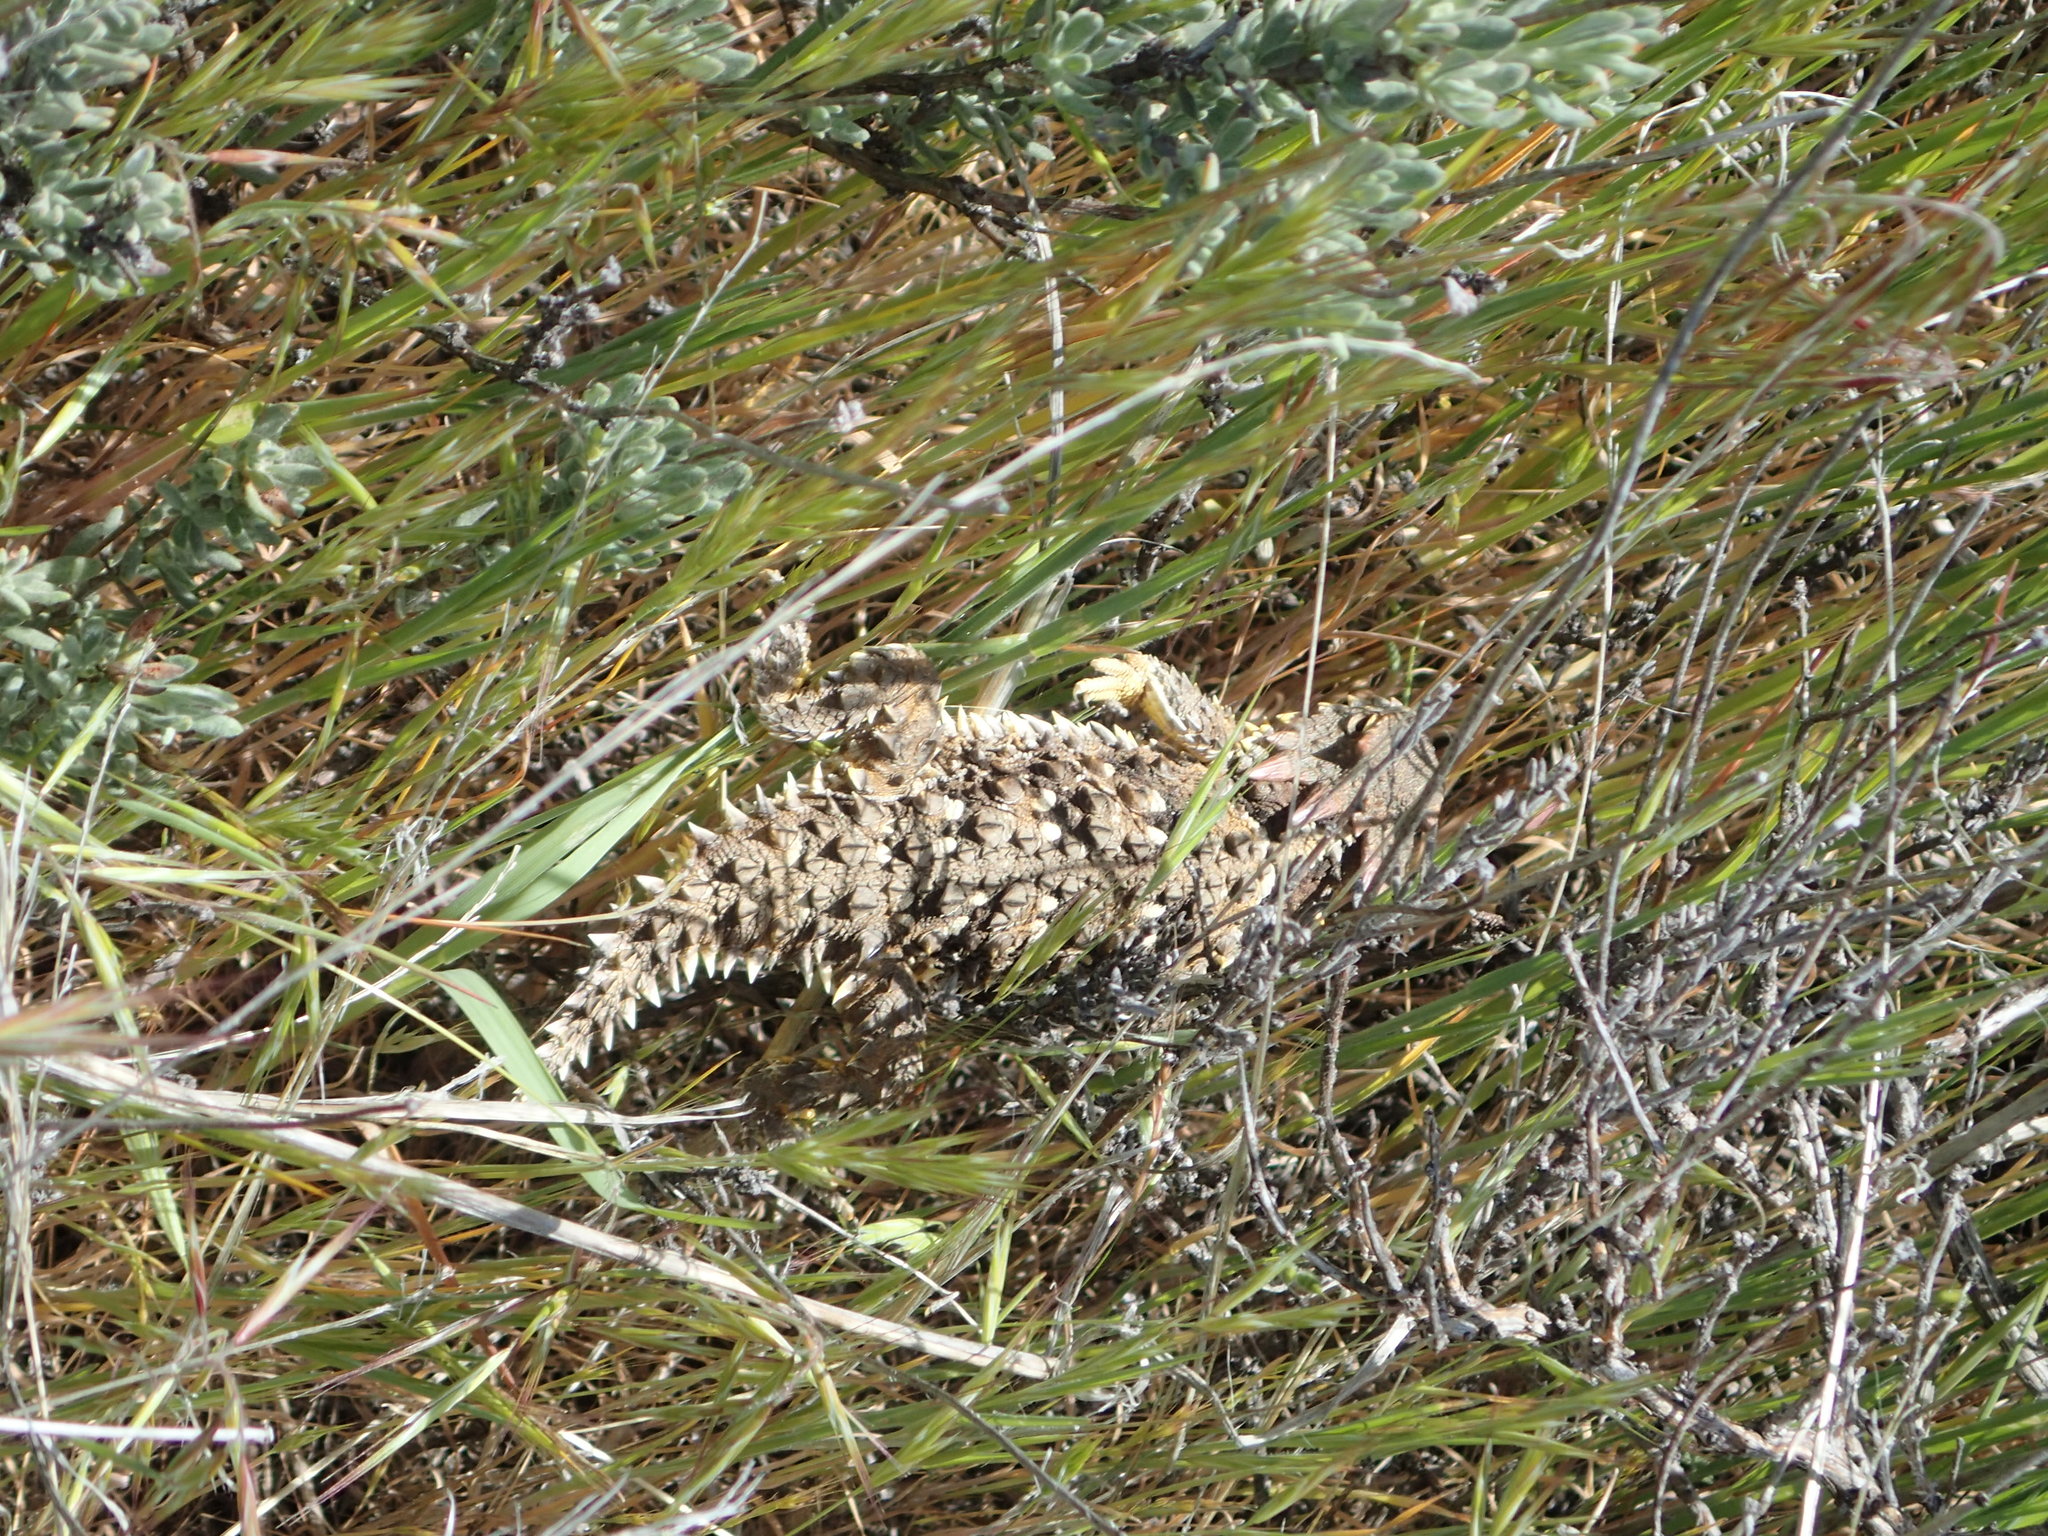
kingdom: Animalia
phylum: Chordata
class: Squamata
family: Phrynosomatidae
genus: Phrynosoma
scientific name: Phrynosoma blainvillii
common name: San diego horned lizard
